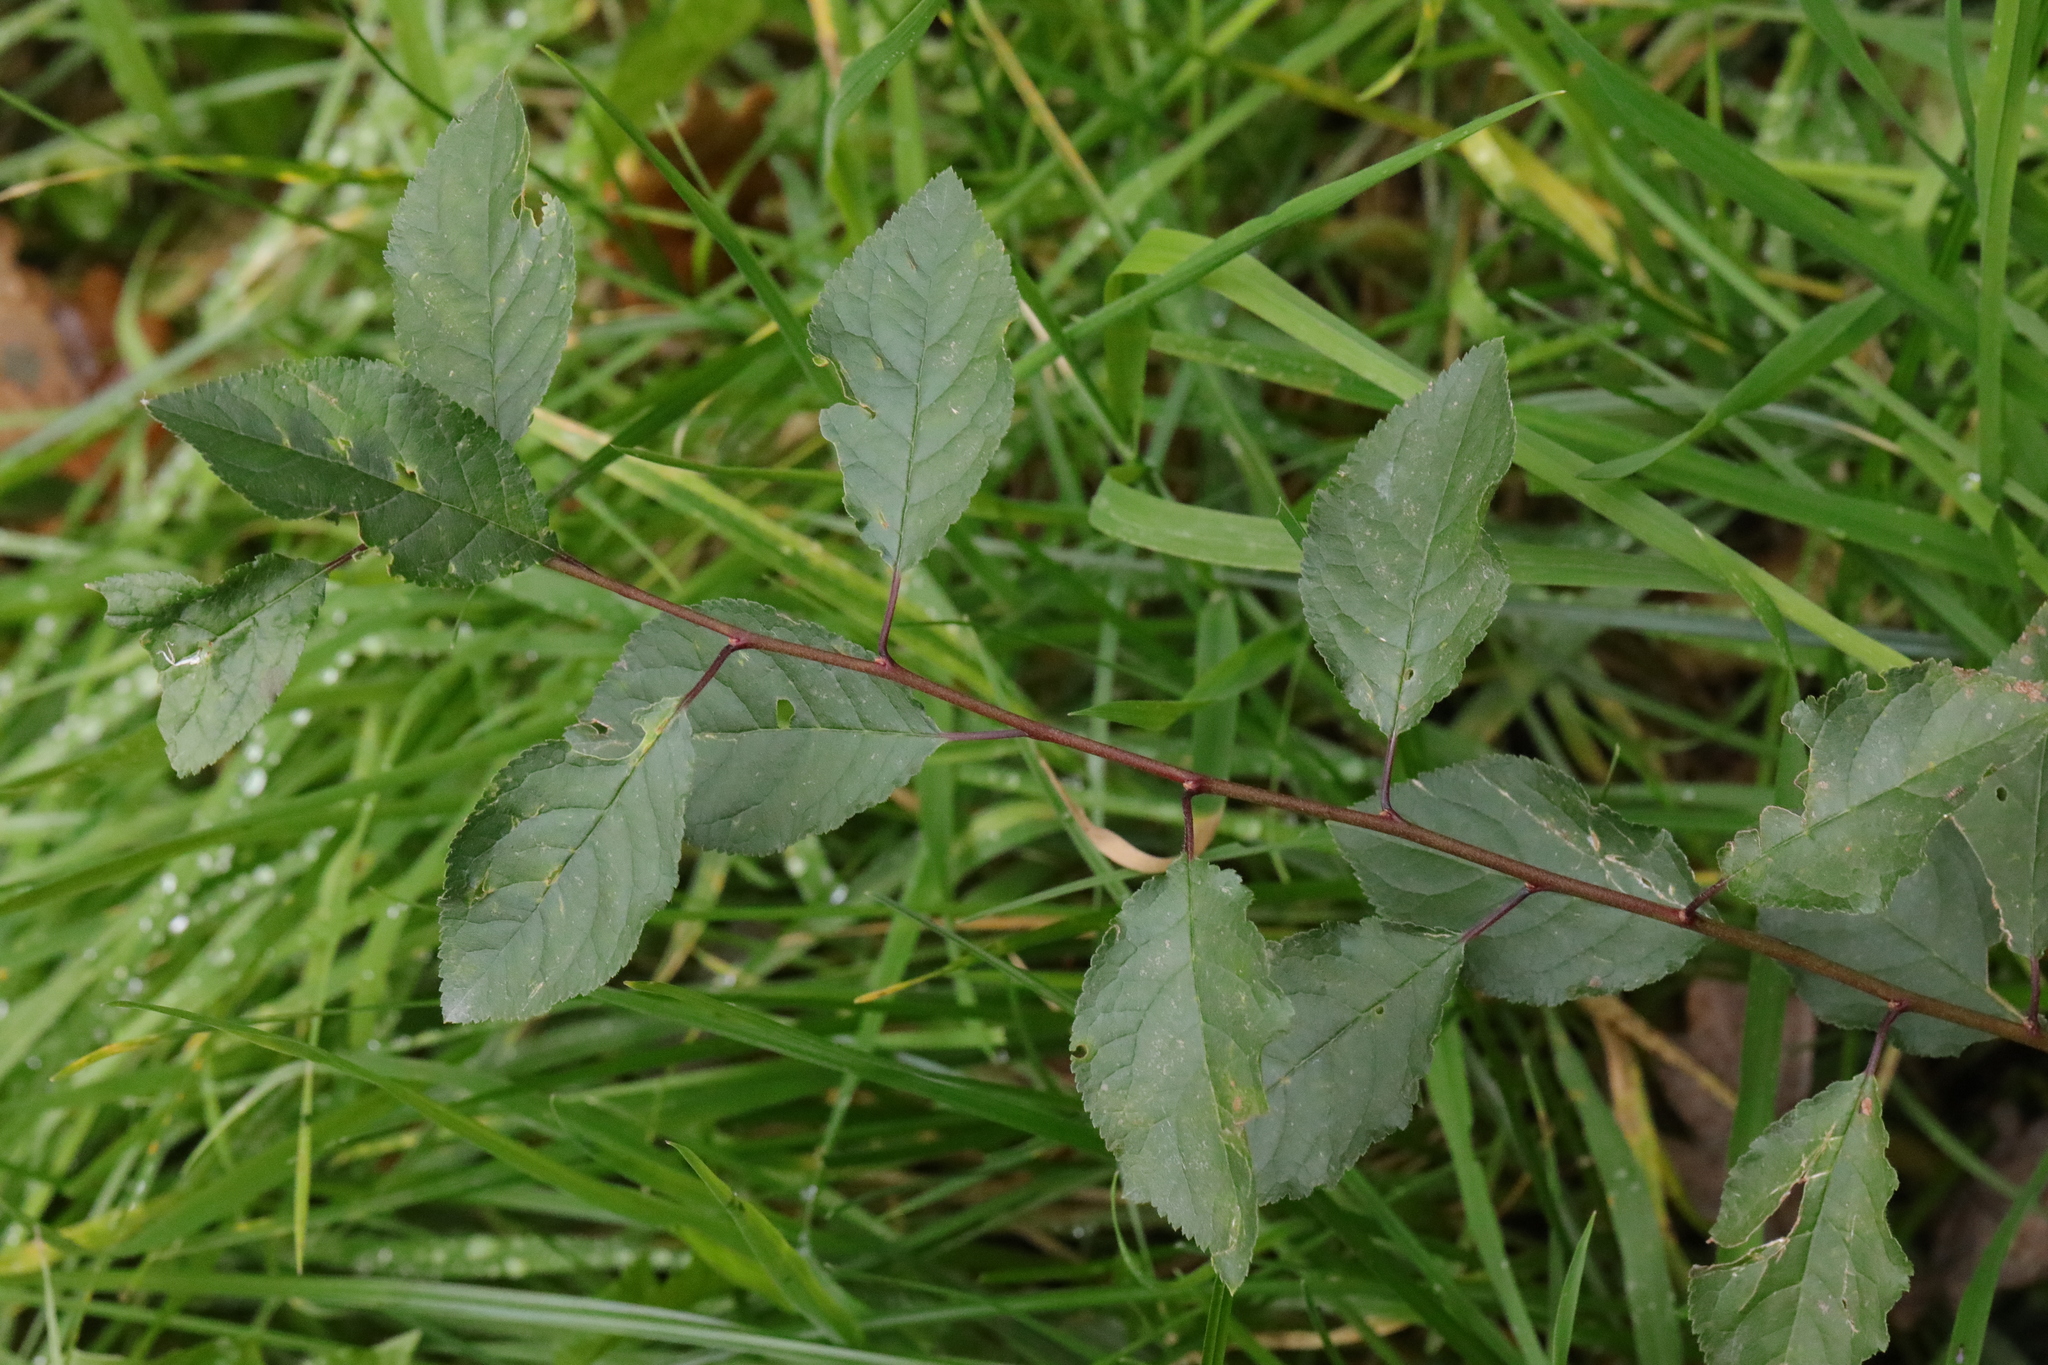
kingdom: Plantae
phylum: Tracheophyta
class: Magnoliopsida
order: Rosales
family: Rosaceae
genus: Prunus
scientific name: Prunus spinosa
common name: Blackthorn
